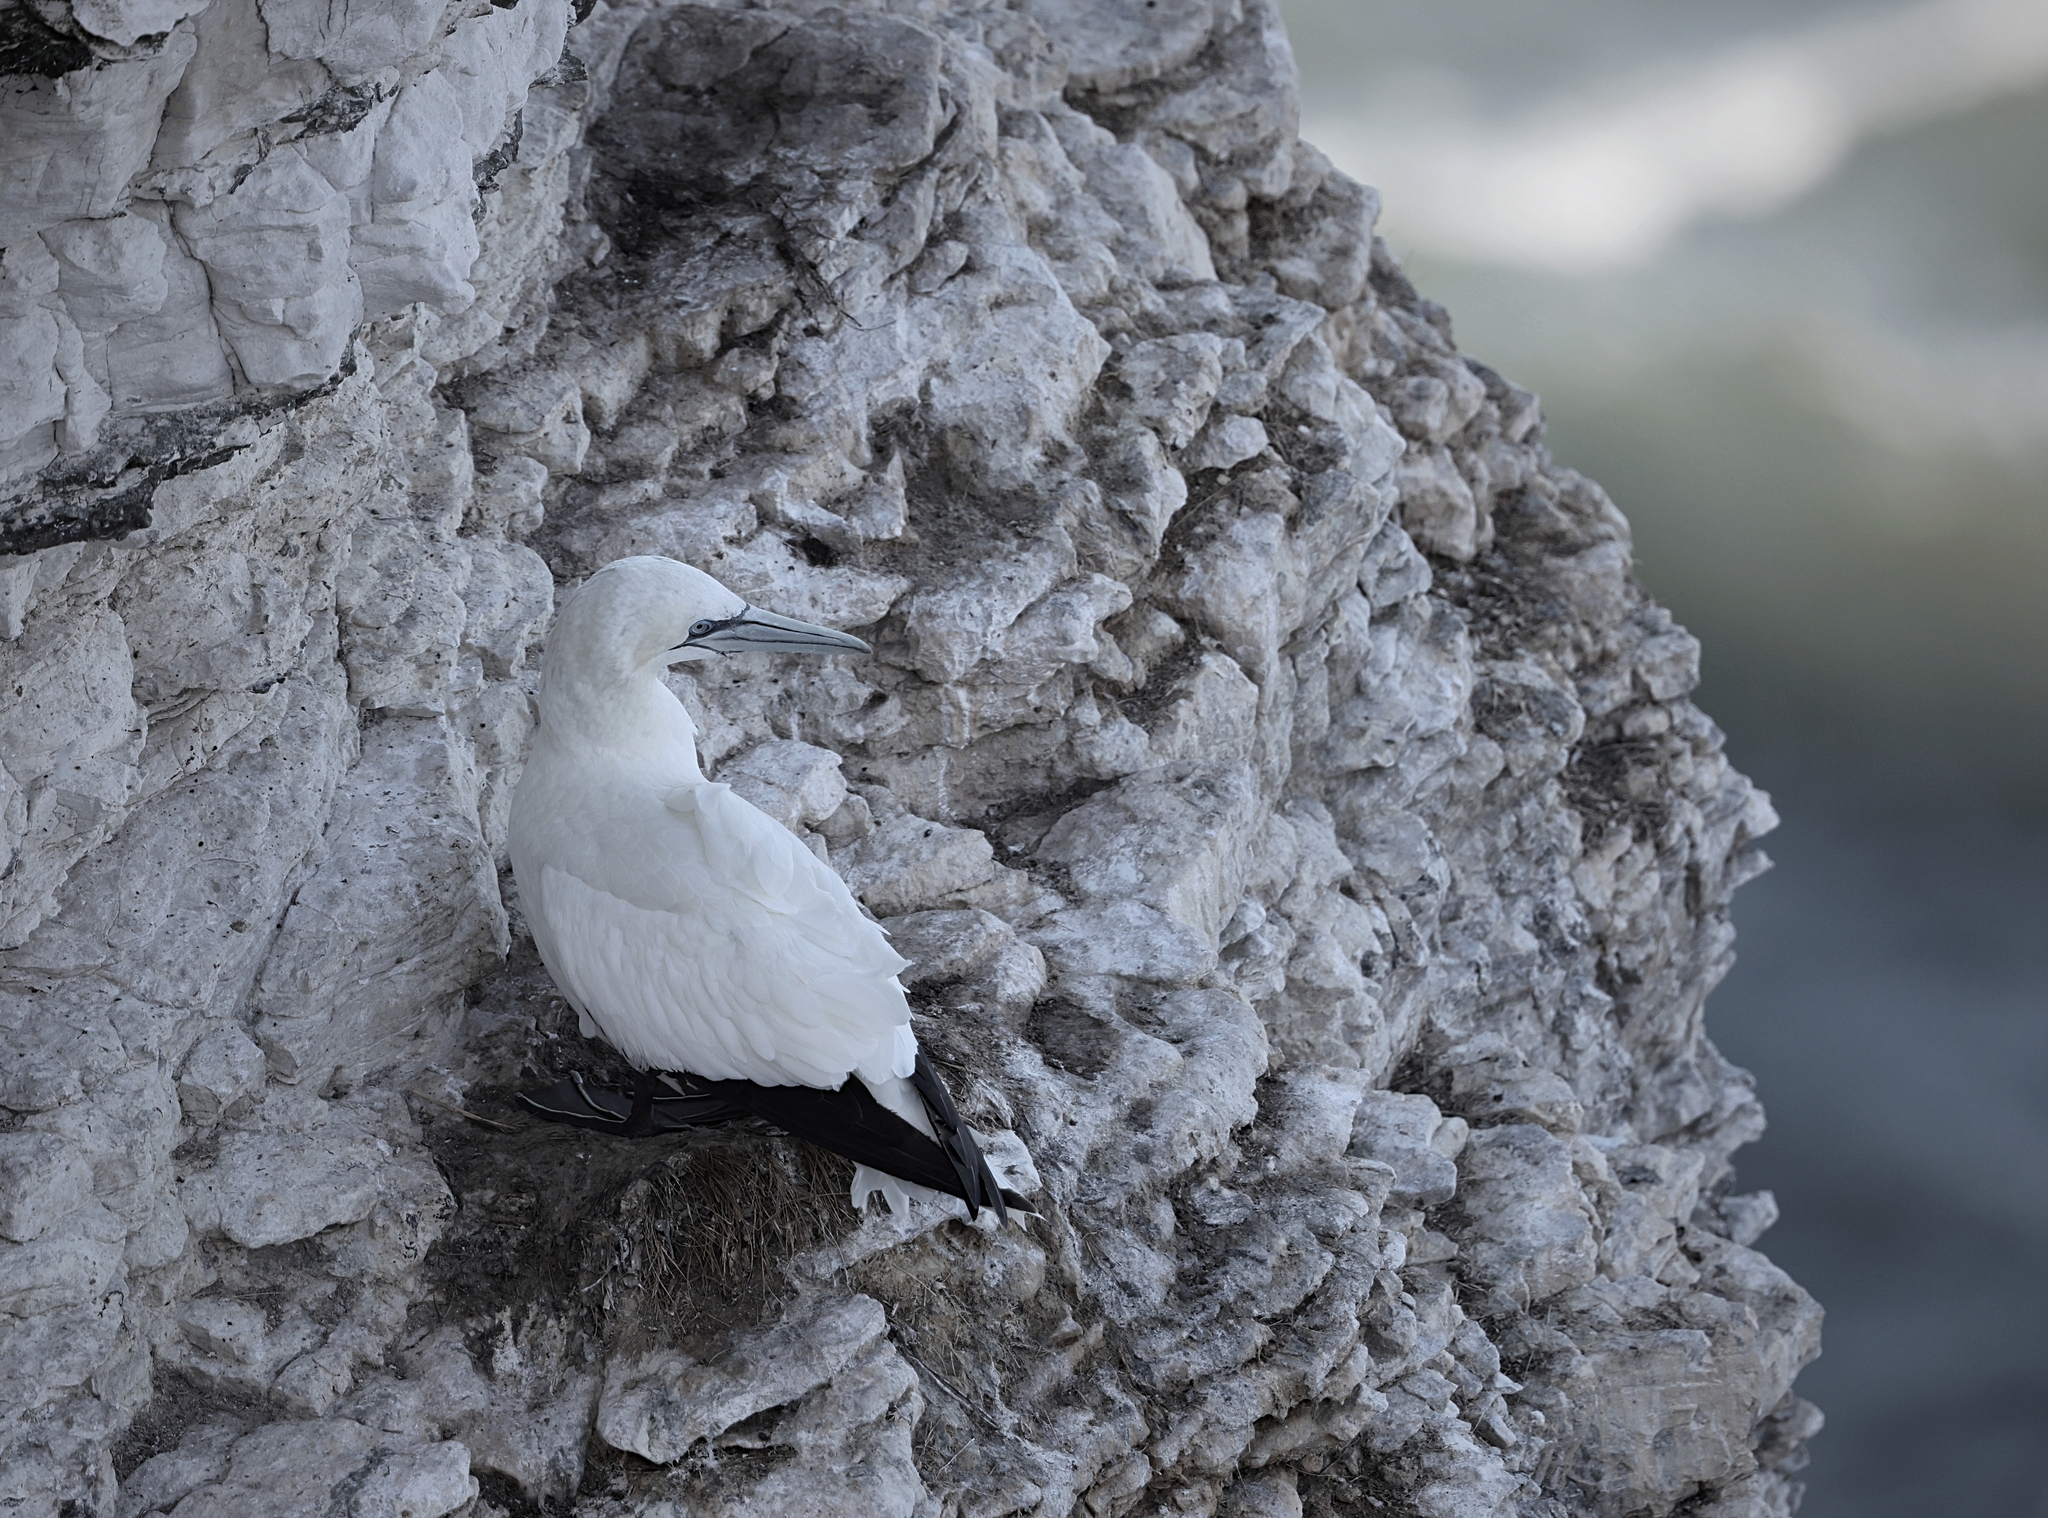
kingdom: Animalia
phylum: Chordata
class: Aves
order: Suliformes
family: Sulidae
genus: Morus
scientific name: Morus bassanus
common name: Northern gannet
